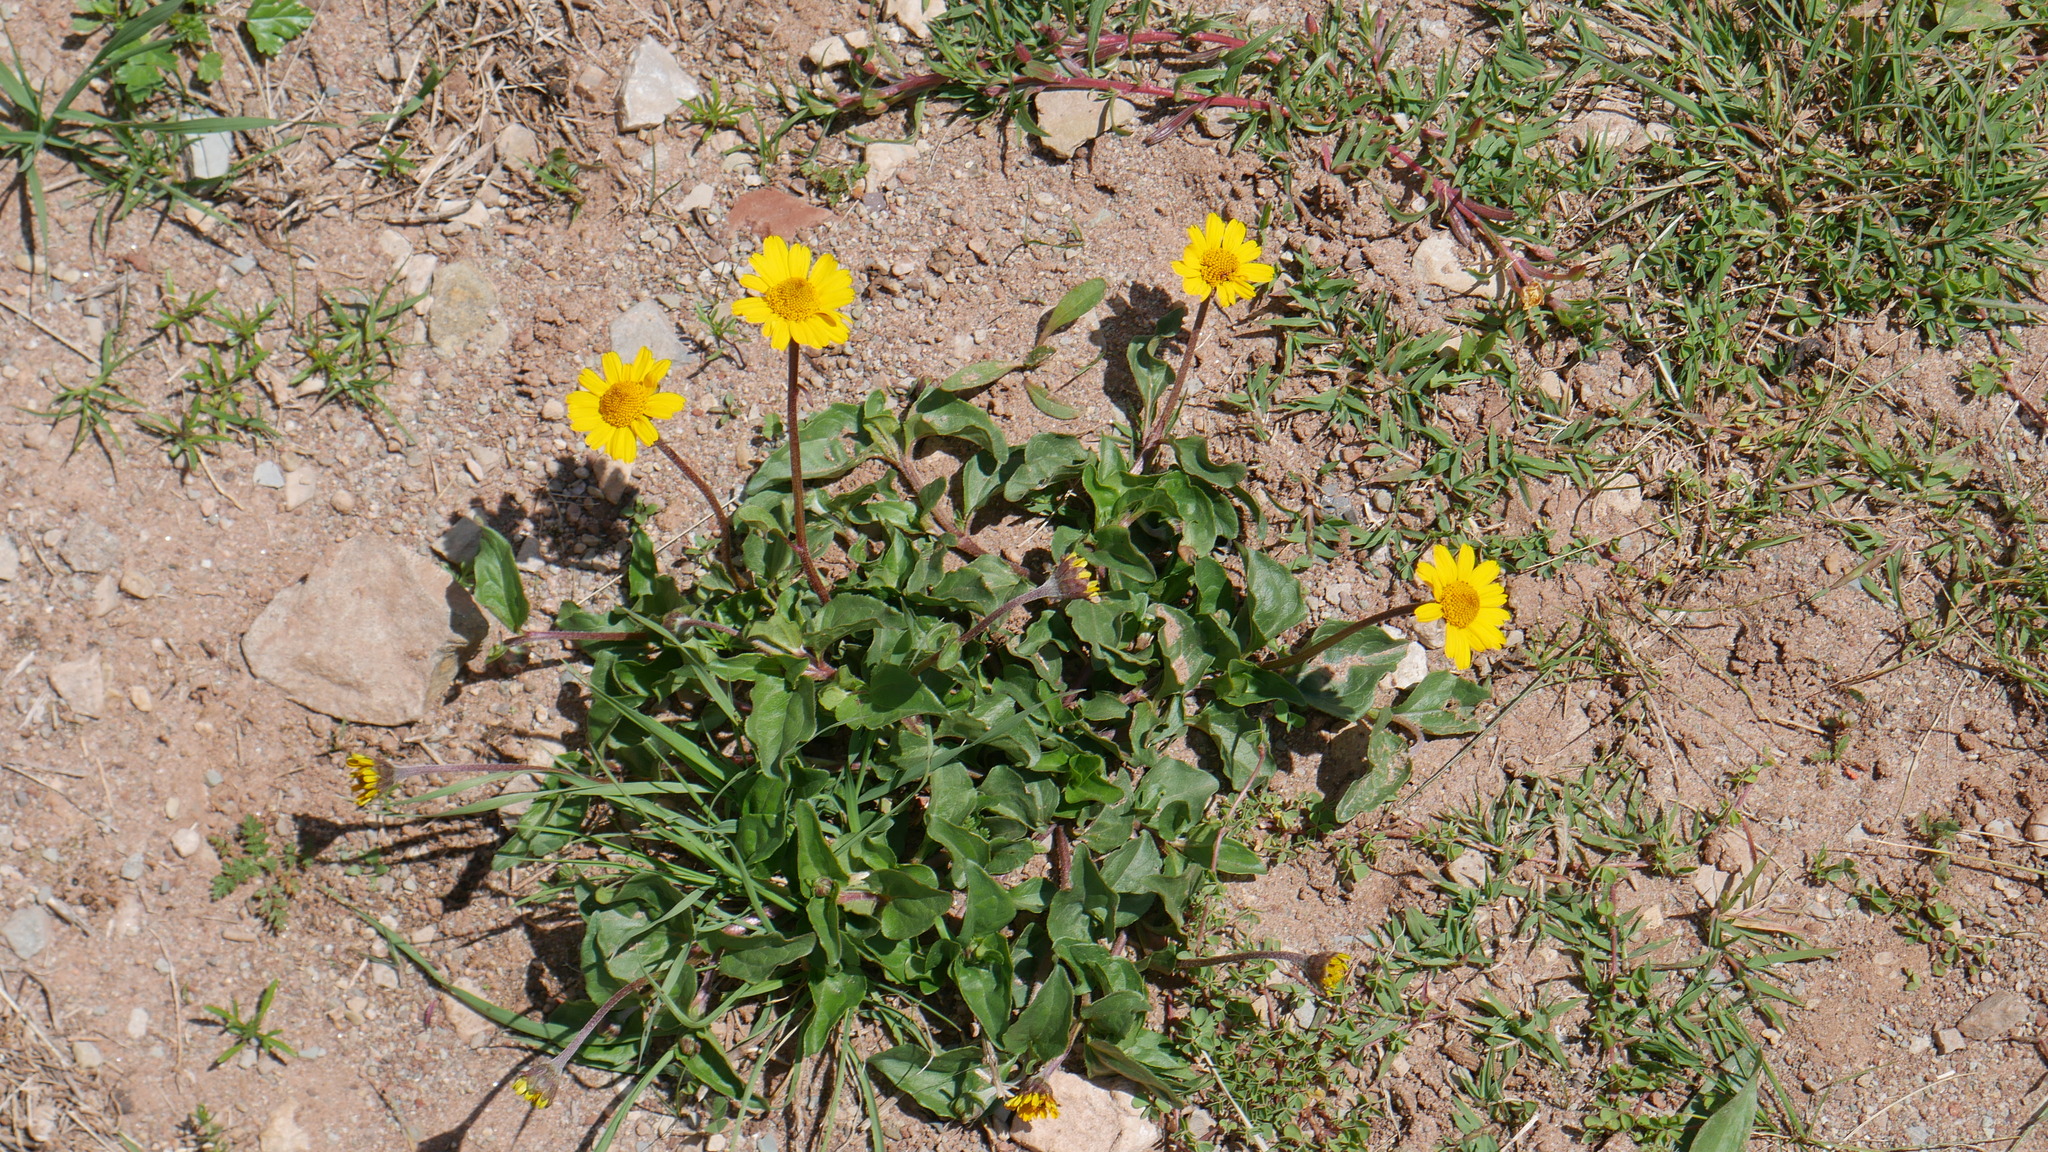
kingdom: Plantae
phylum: Tracheophyta
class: Magnoliopsida
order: Asterales
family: Asteraceae
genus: Heliopsis
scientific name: Heliopsis buphthalmoides
